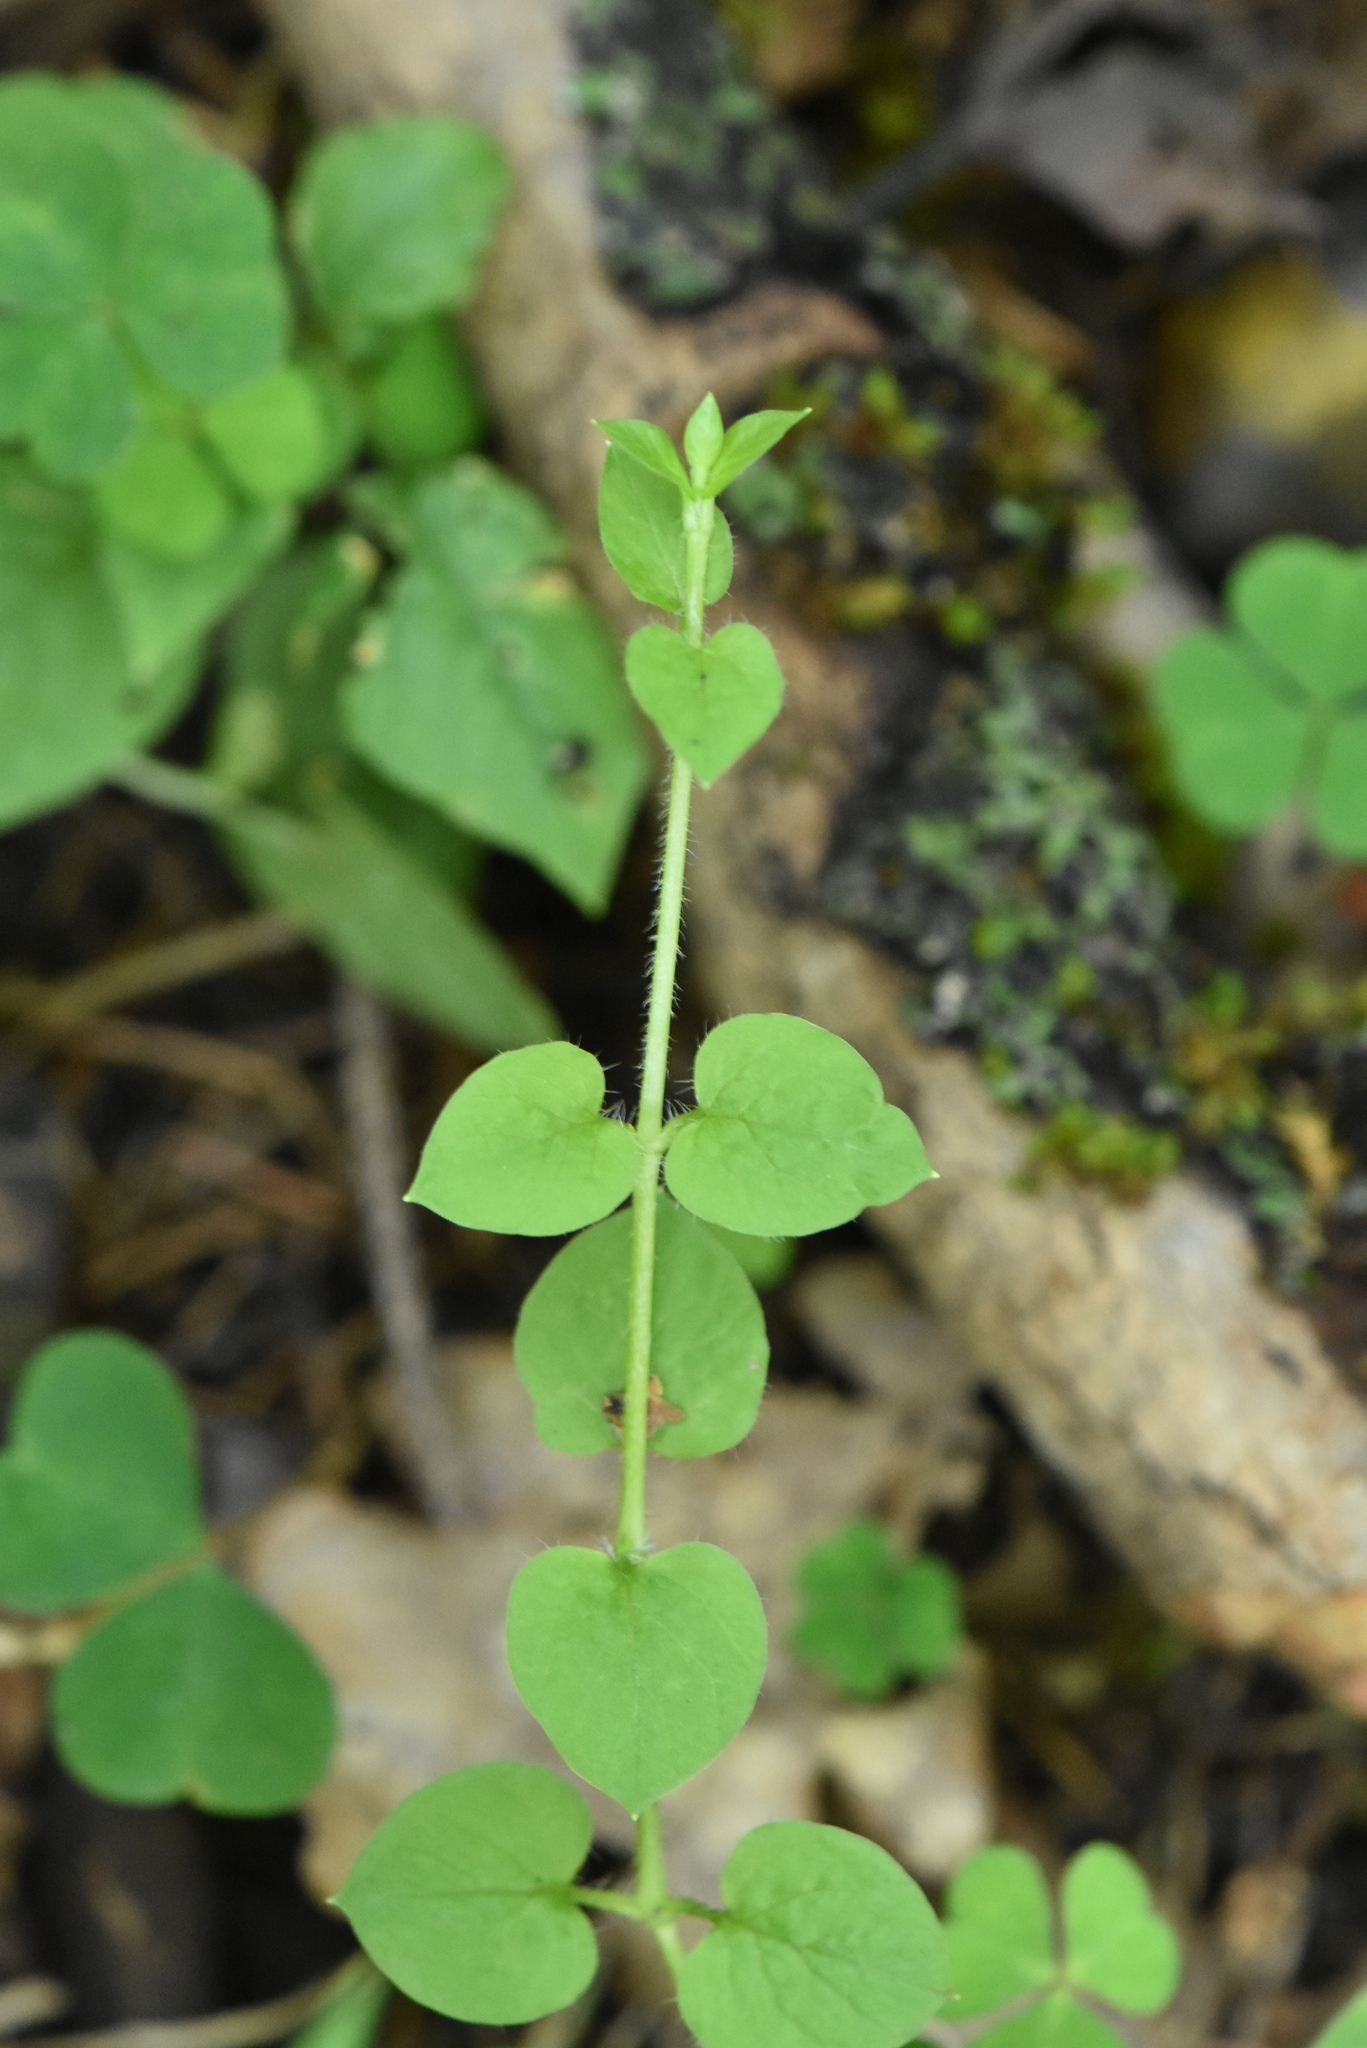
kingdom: Plantae
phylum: Tracheophyta
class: Magnoliopsida
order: Caryophyllales
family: Caryophyllaceae
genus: Stellaria
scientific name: Stellaria nemorum
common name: Wood stitchwort
